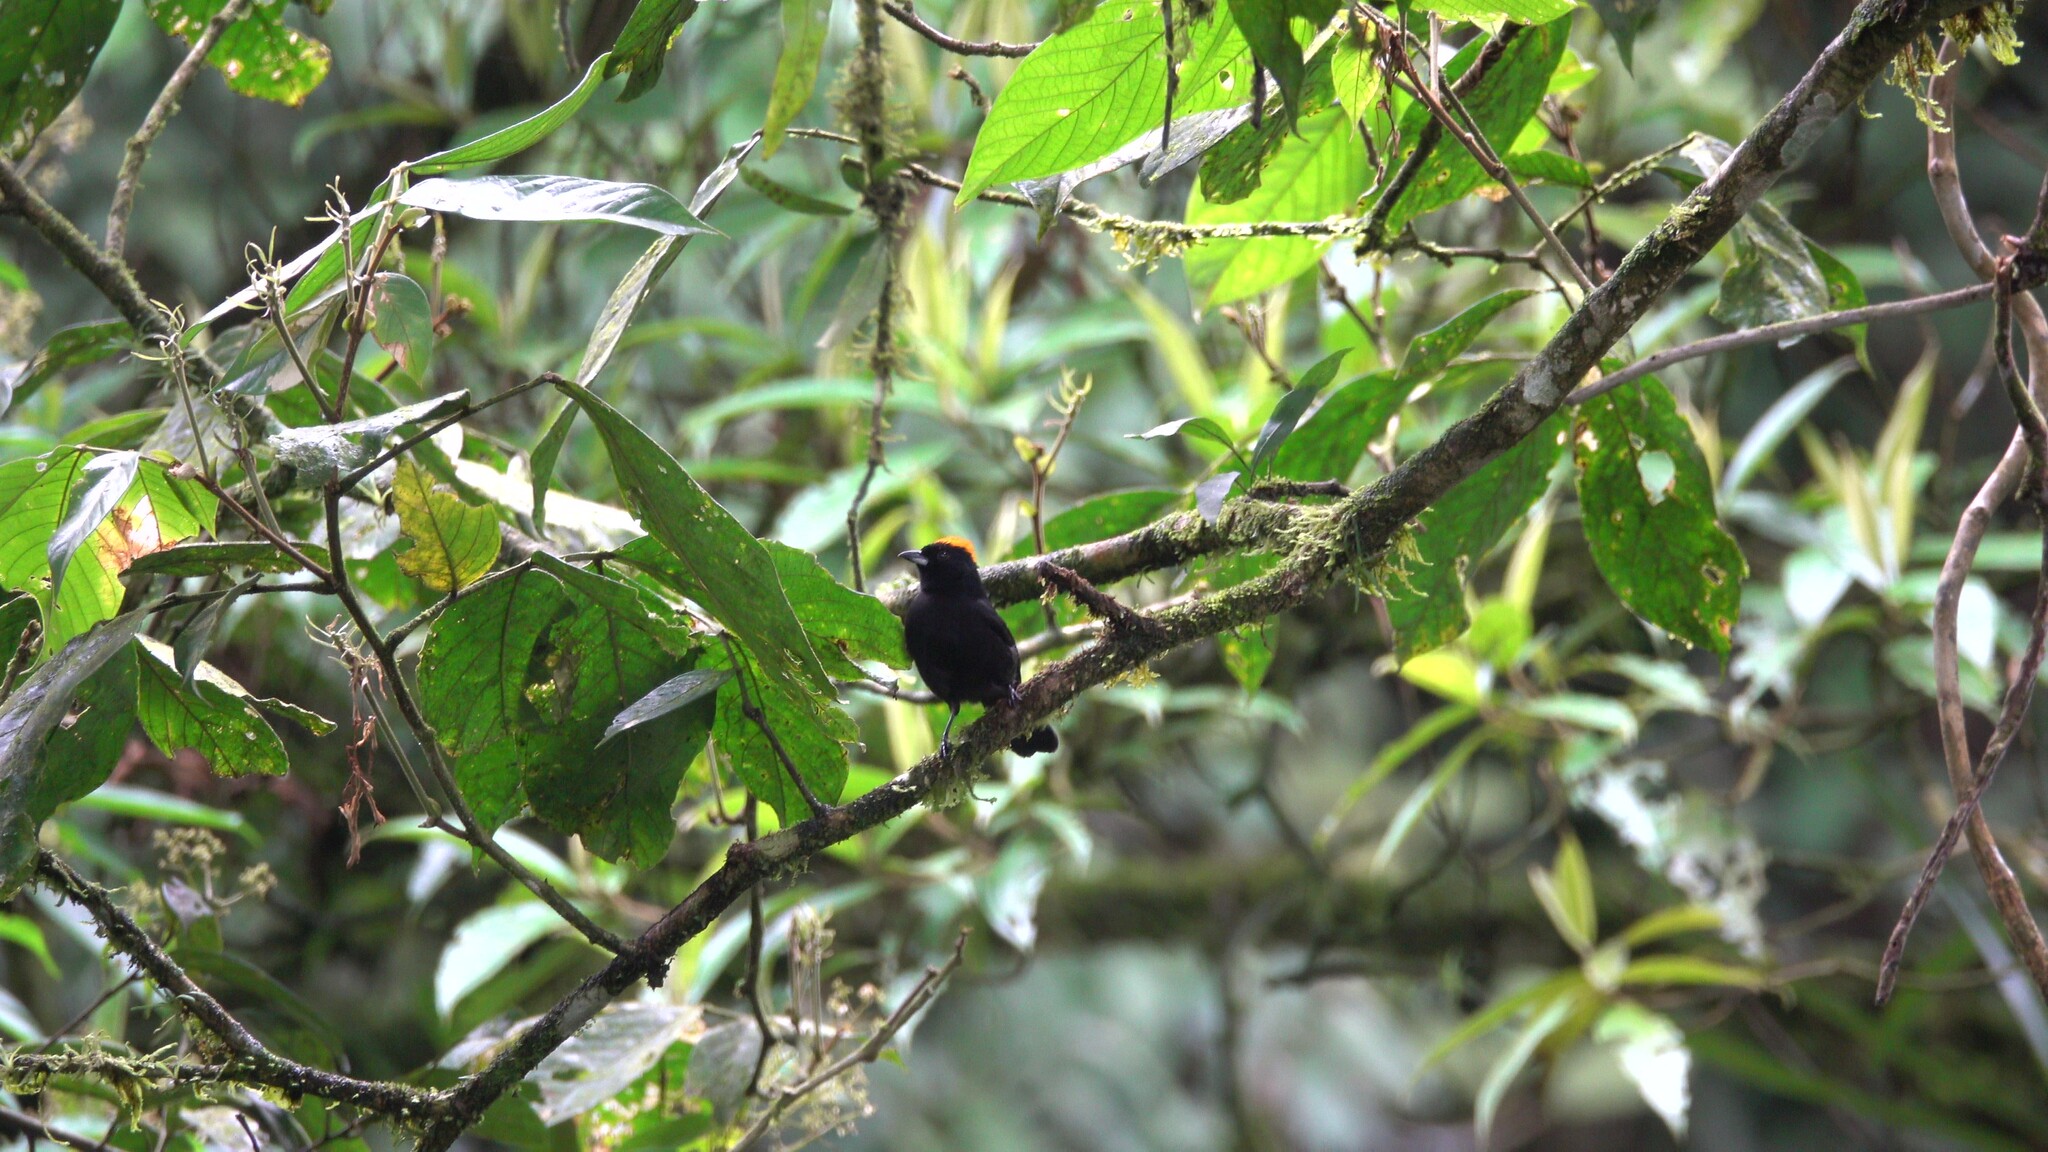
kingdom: Animalia
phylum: Chordata
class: Aves
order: Passeriformes
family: Thraupidae
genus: Tachyphonus
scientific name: Tachyphonus delatrii
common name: Tawny-crested tanager
